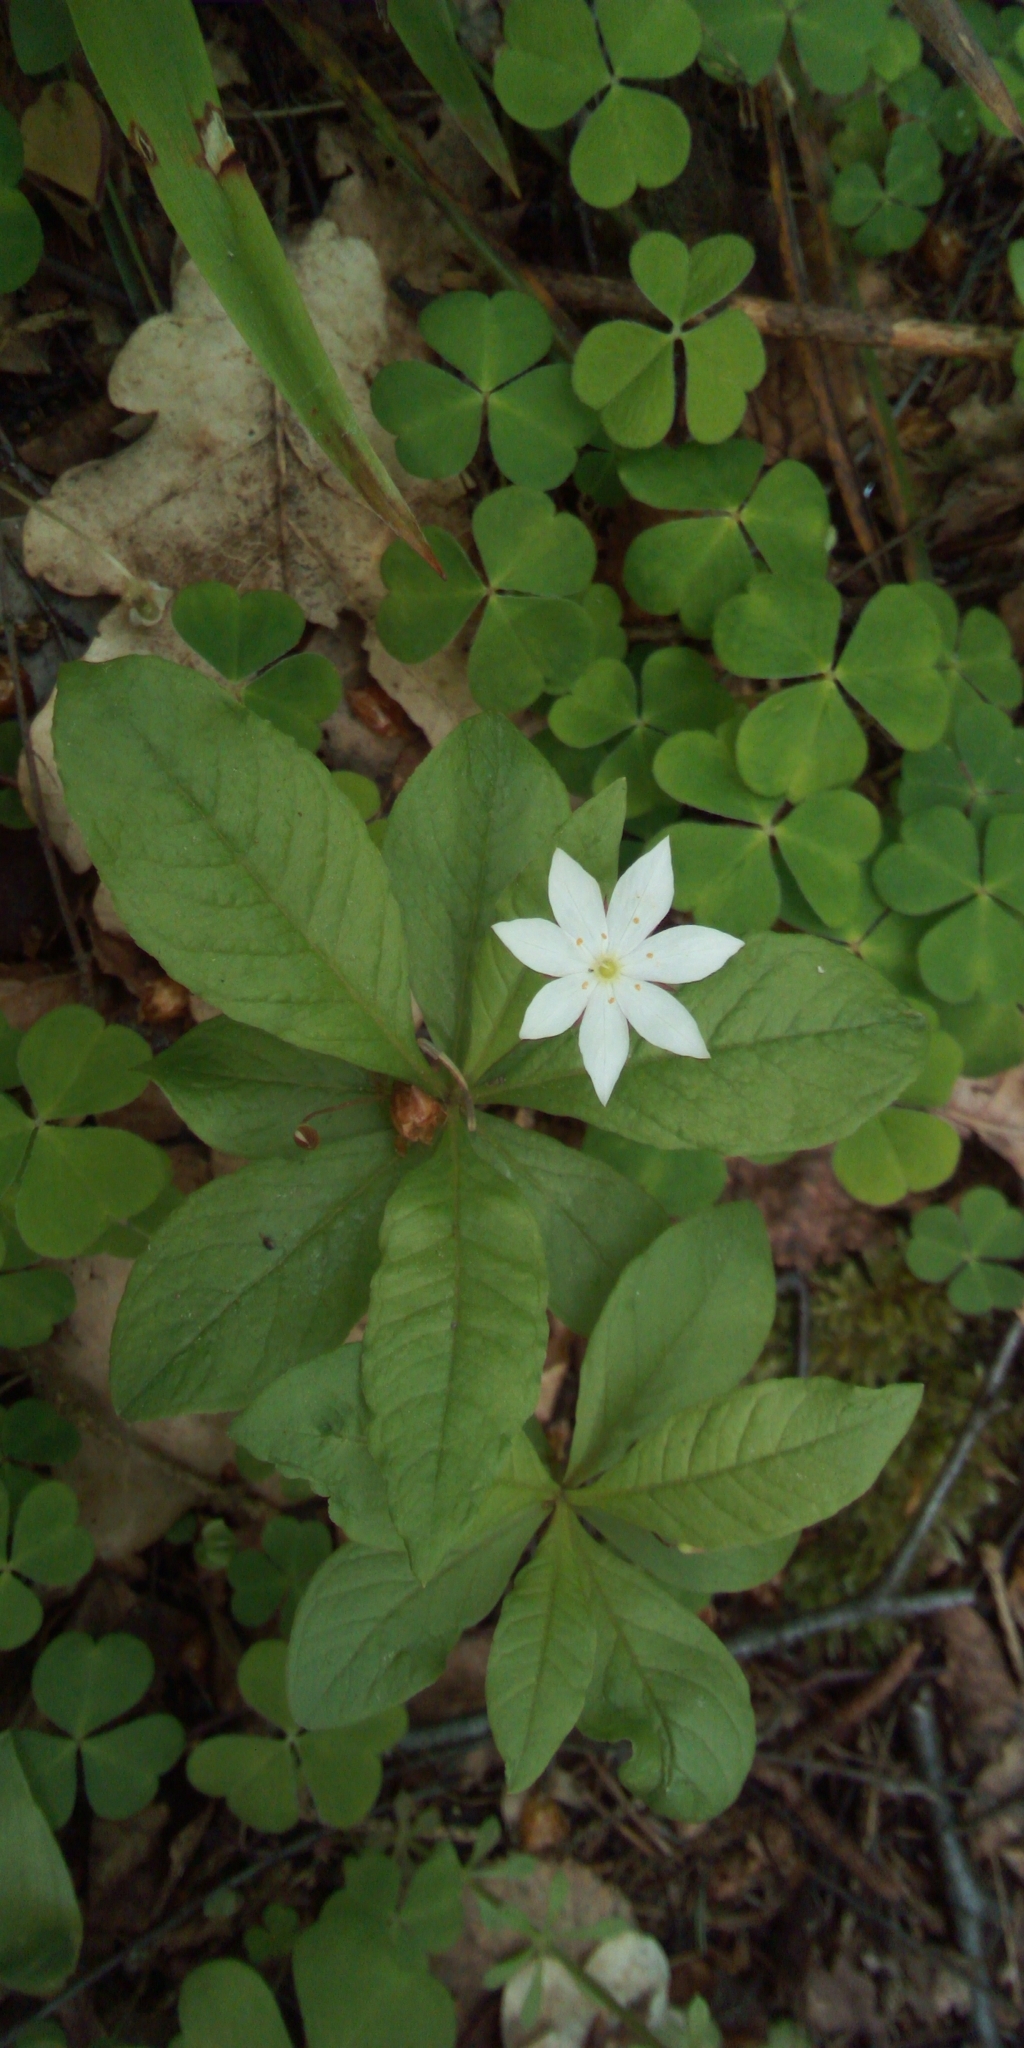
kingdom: Plantae
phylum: Tracheophyta
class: Magnoliopsida
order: Ericales
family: Primulaceae
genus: Lysimachia
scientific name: Lysimachia europaea
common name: Arctic starflower
